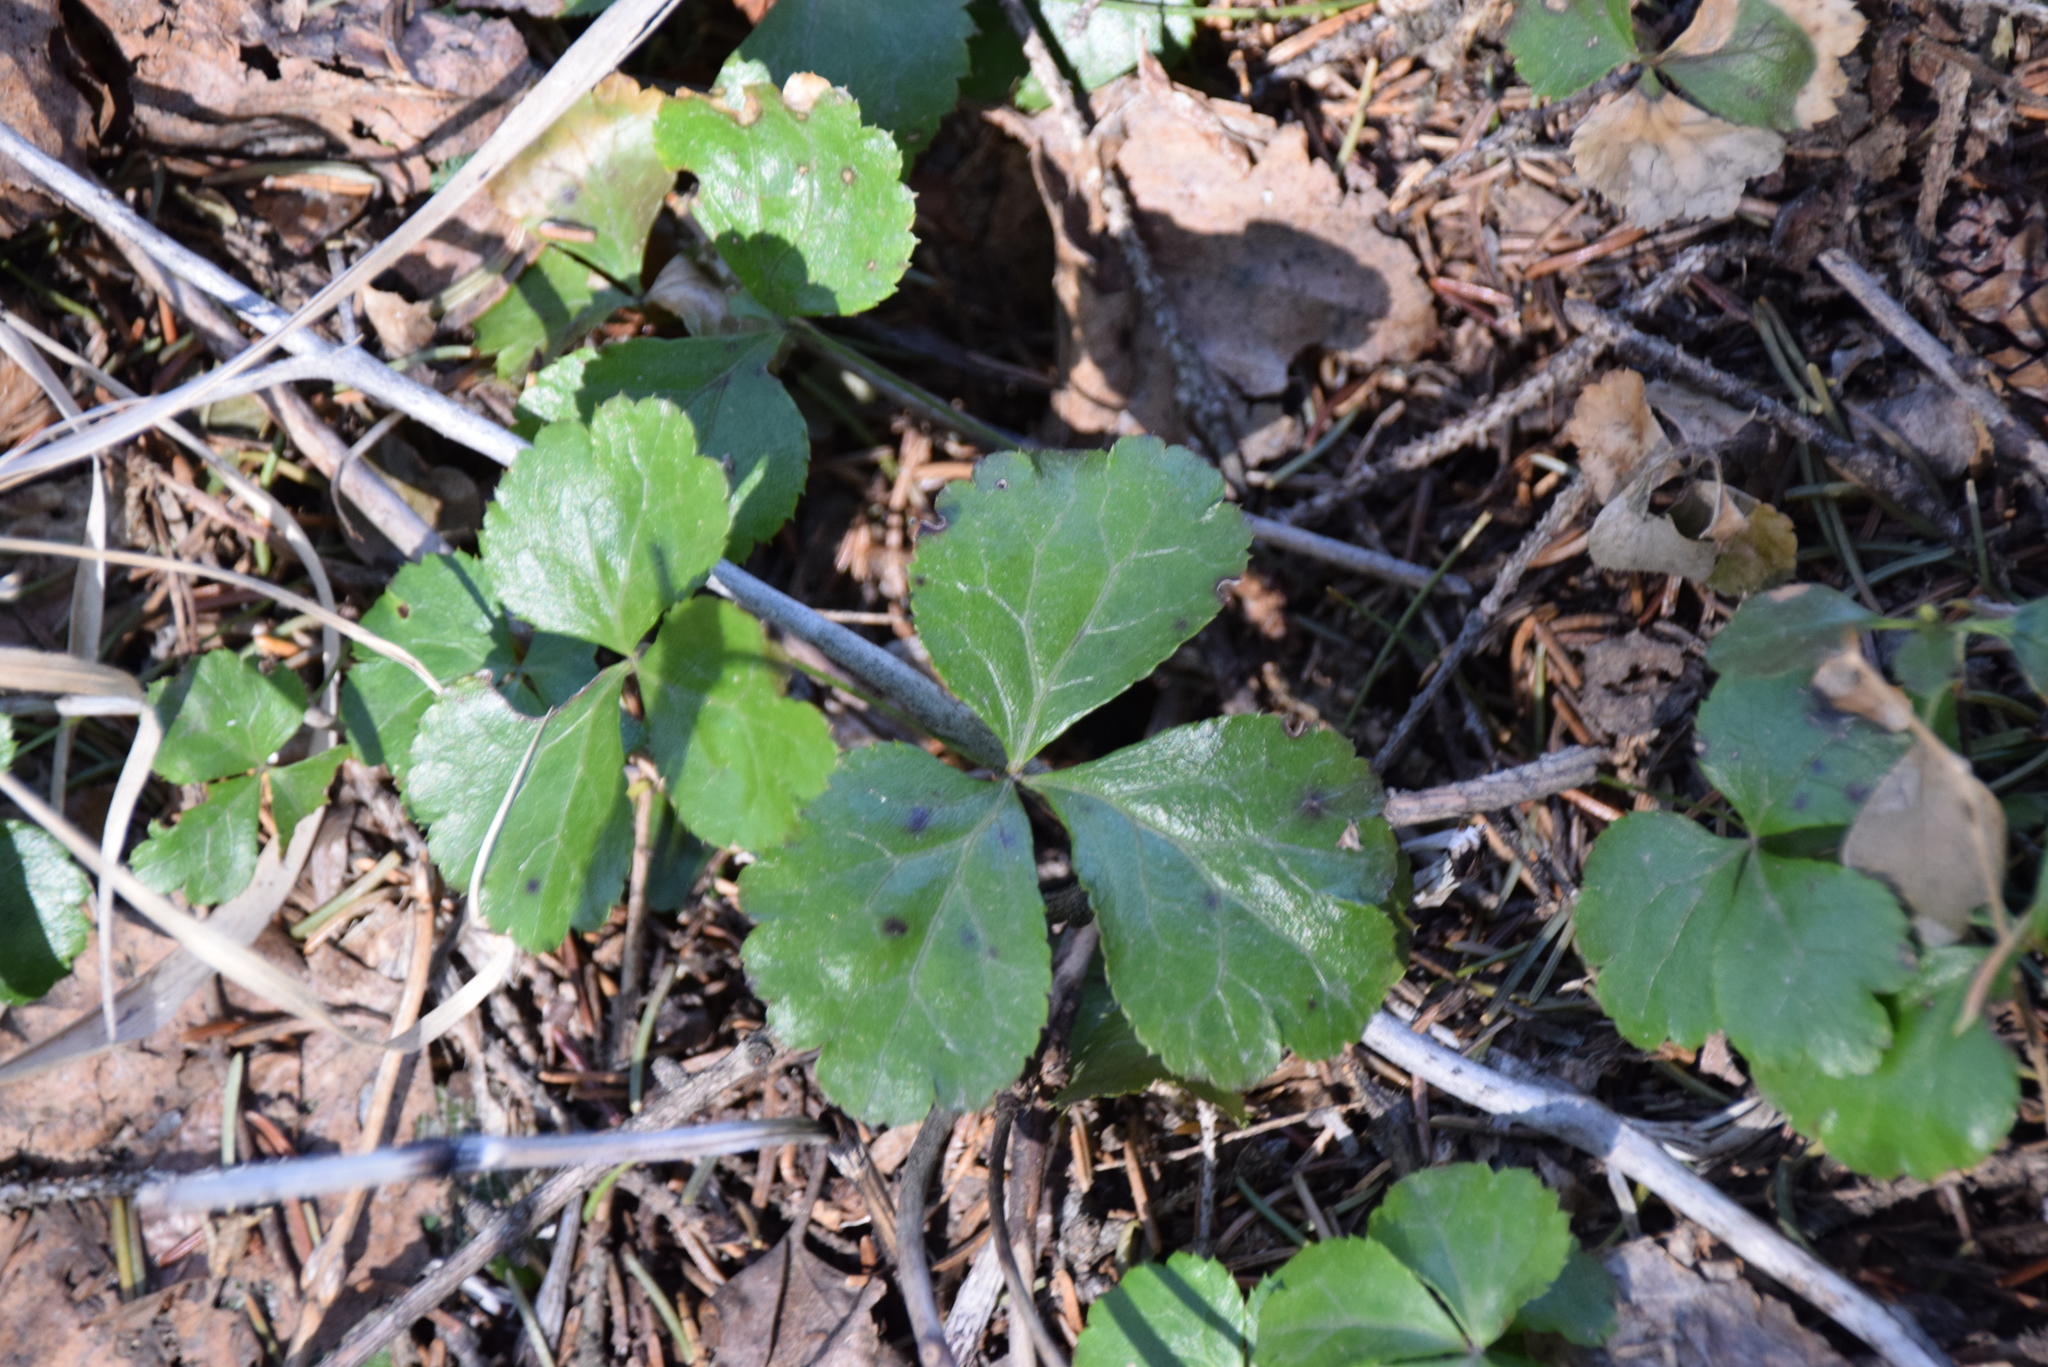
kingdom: Plantae
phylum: Tracheophyta
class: Magnoliopsida
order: Ranunculales
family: Ranunculaceae
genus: Coptis
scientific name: Coptis trifolia
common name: Canker-root
